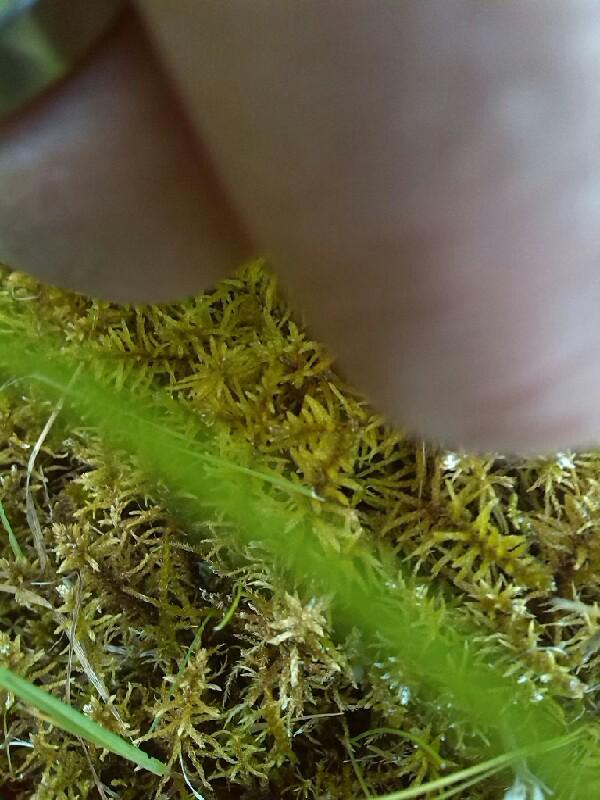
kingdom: Plantae
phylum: Bryophyta
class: Bryopsida
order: Hypnales
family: Helodiaceae
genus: Helodium
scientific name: Helodium blandowii
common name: Blandow's tamarisk-moss
